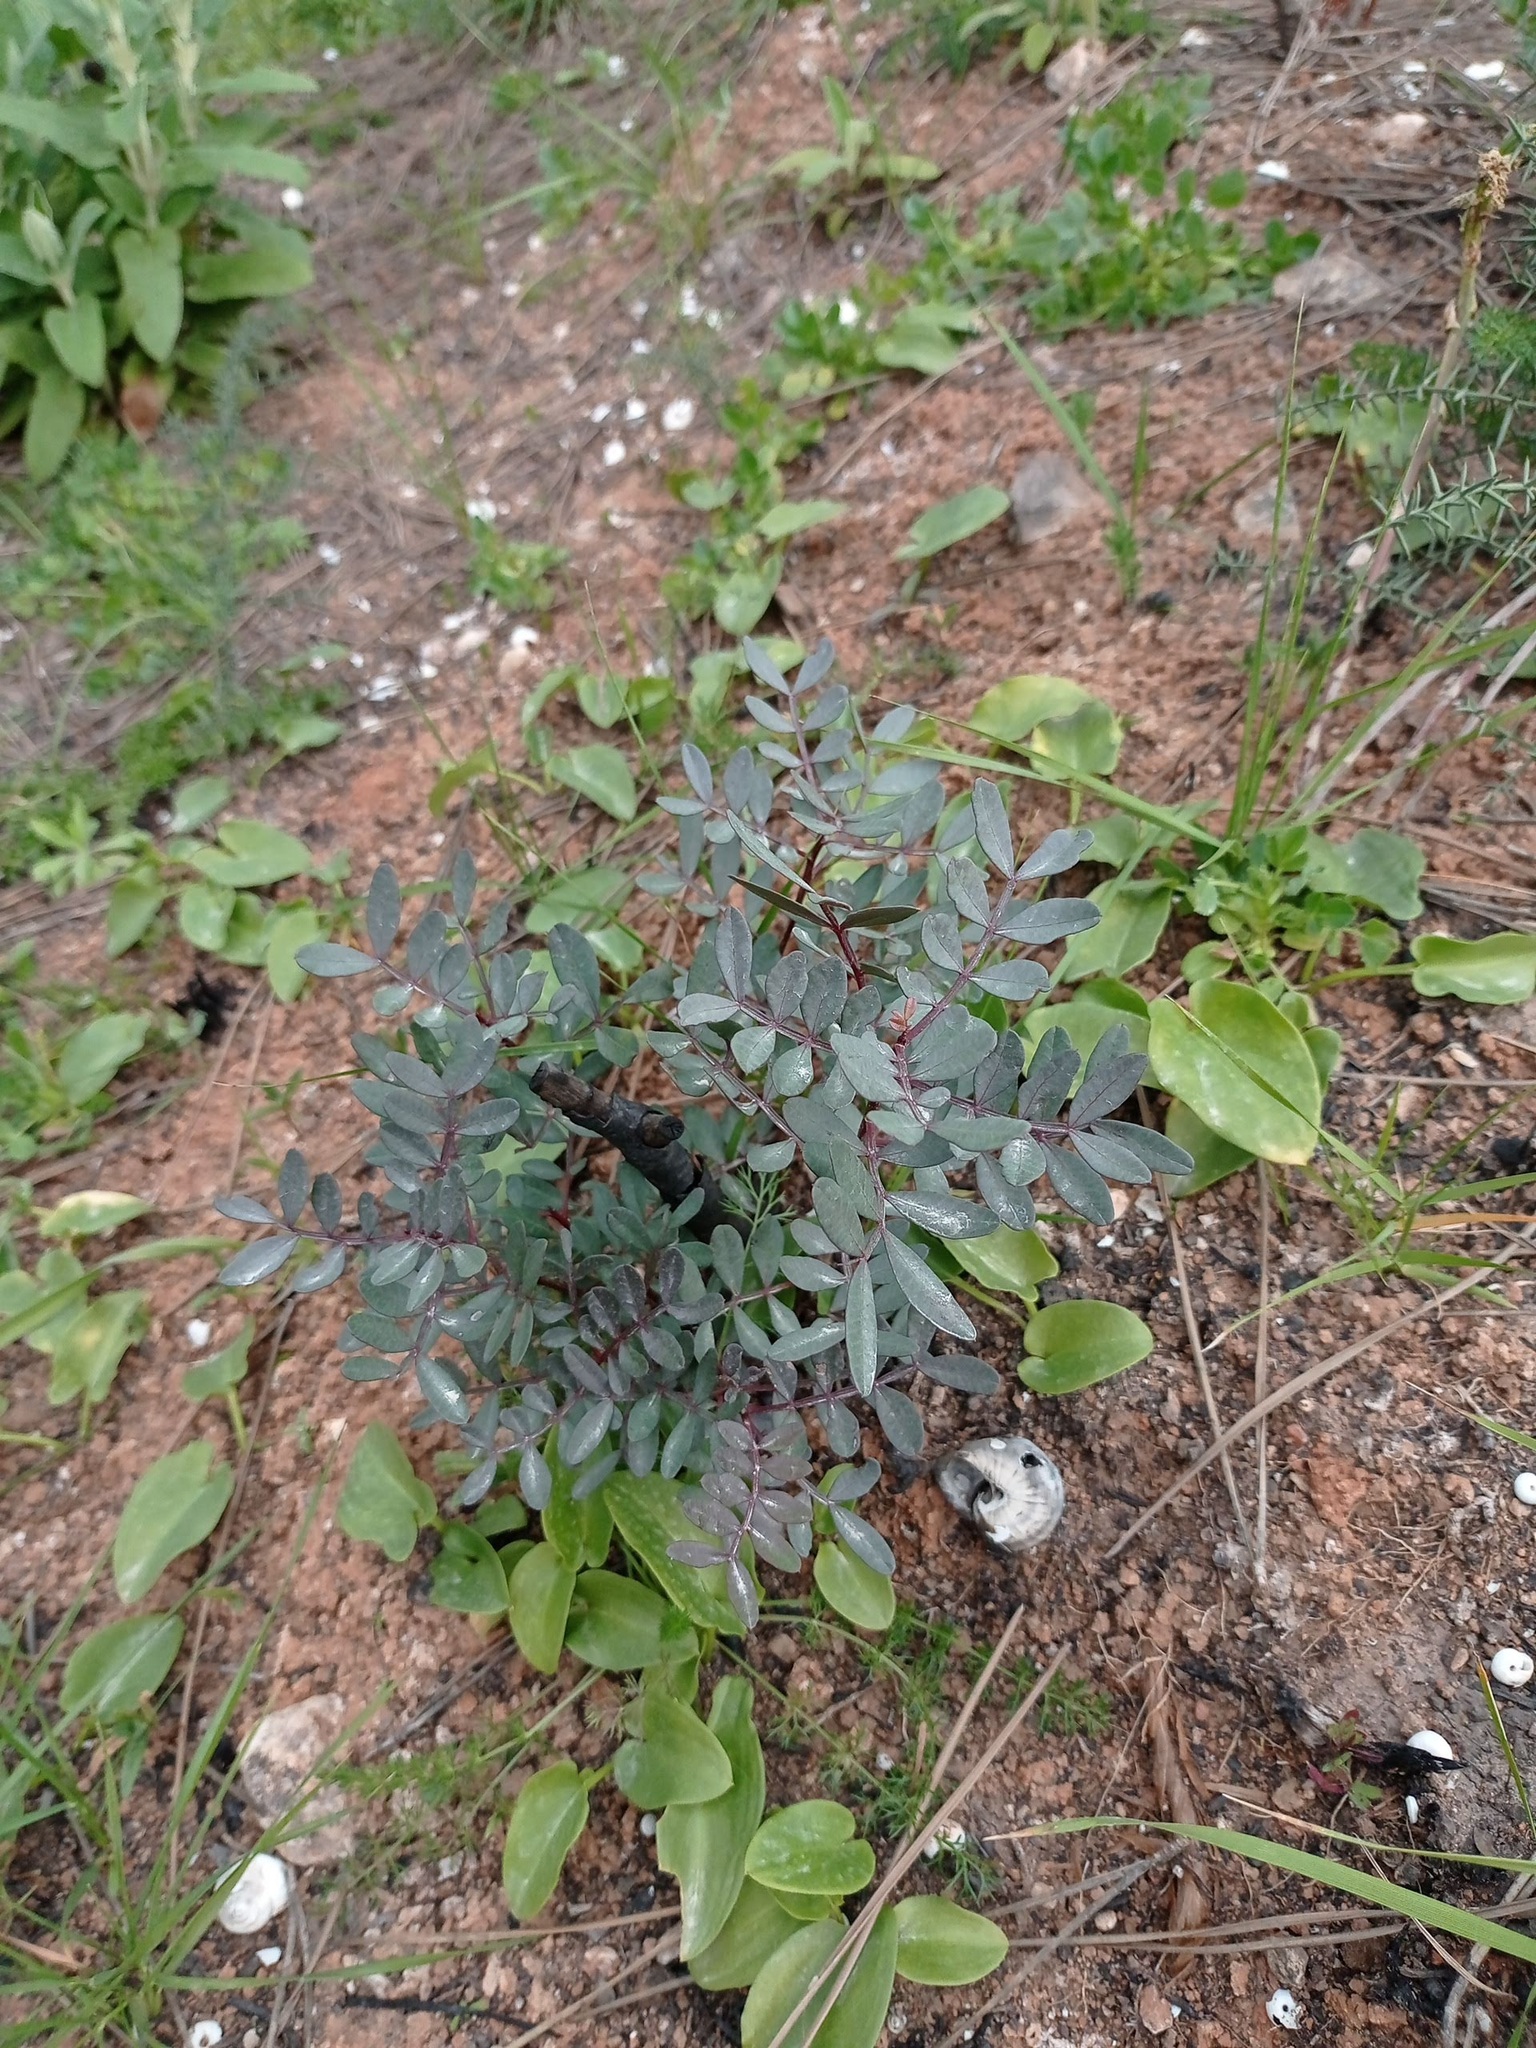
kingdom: Plantae
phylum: Tracheophyta
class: Magnoliopsida
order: Sapindales
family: Anacardiaceae
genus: Pistacia
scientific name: Pistacia lentiscus
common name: Lentisk
